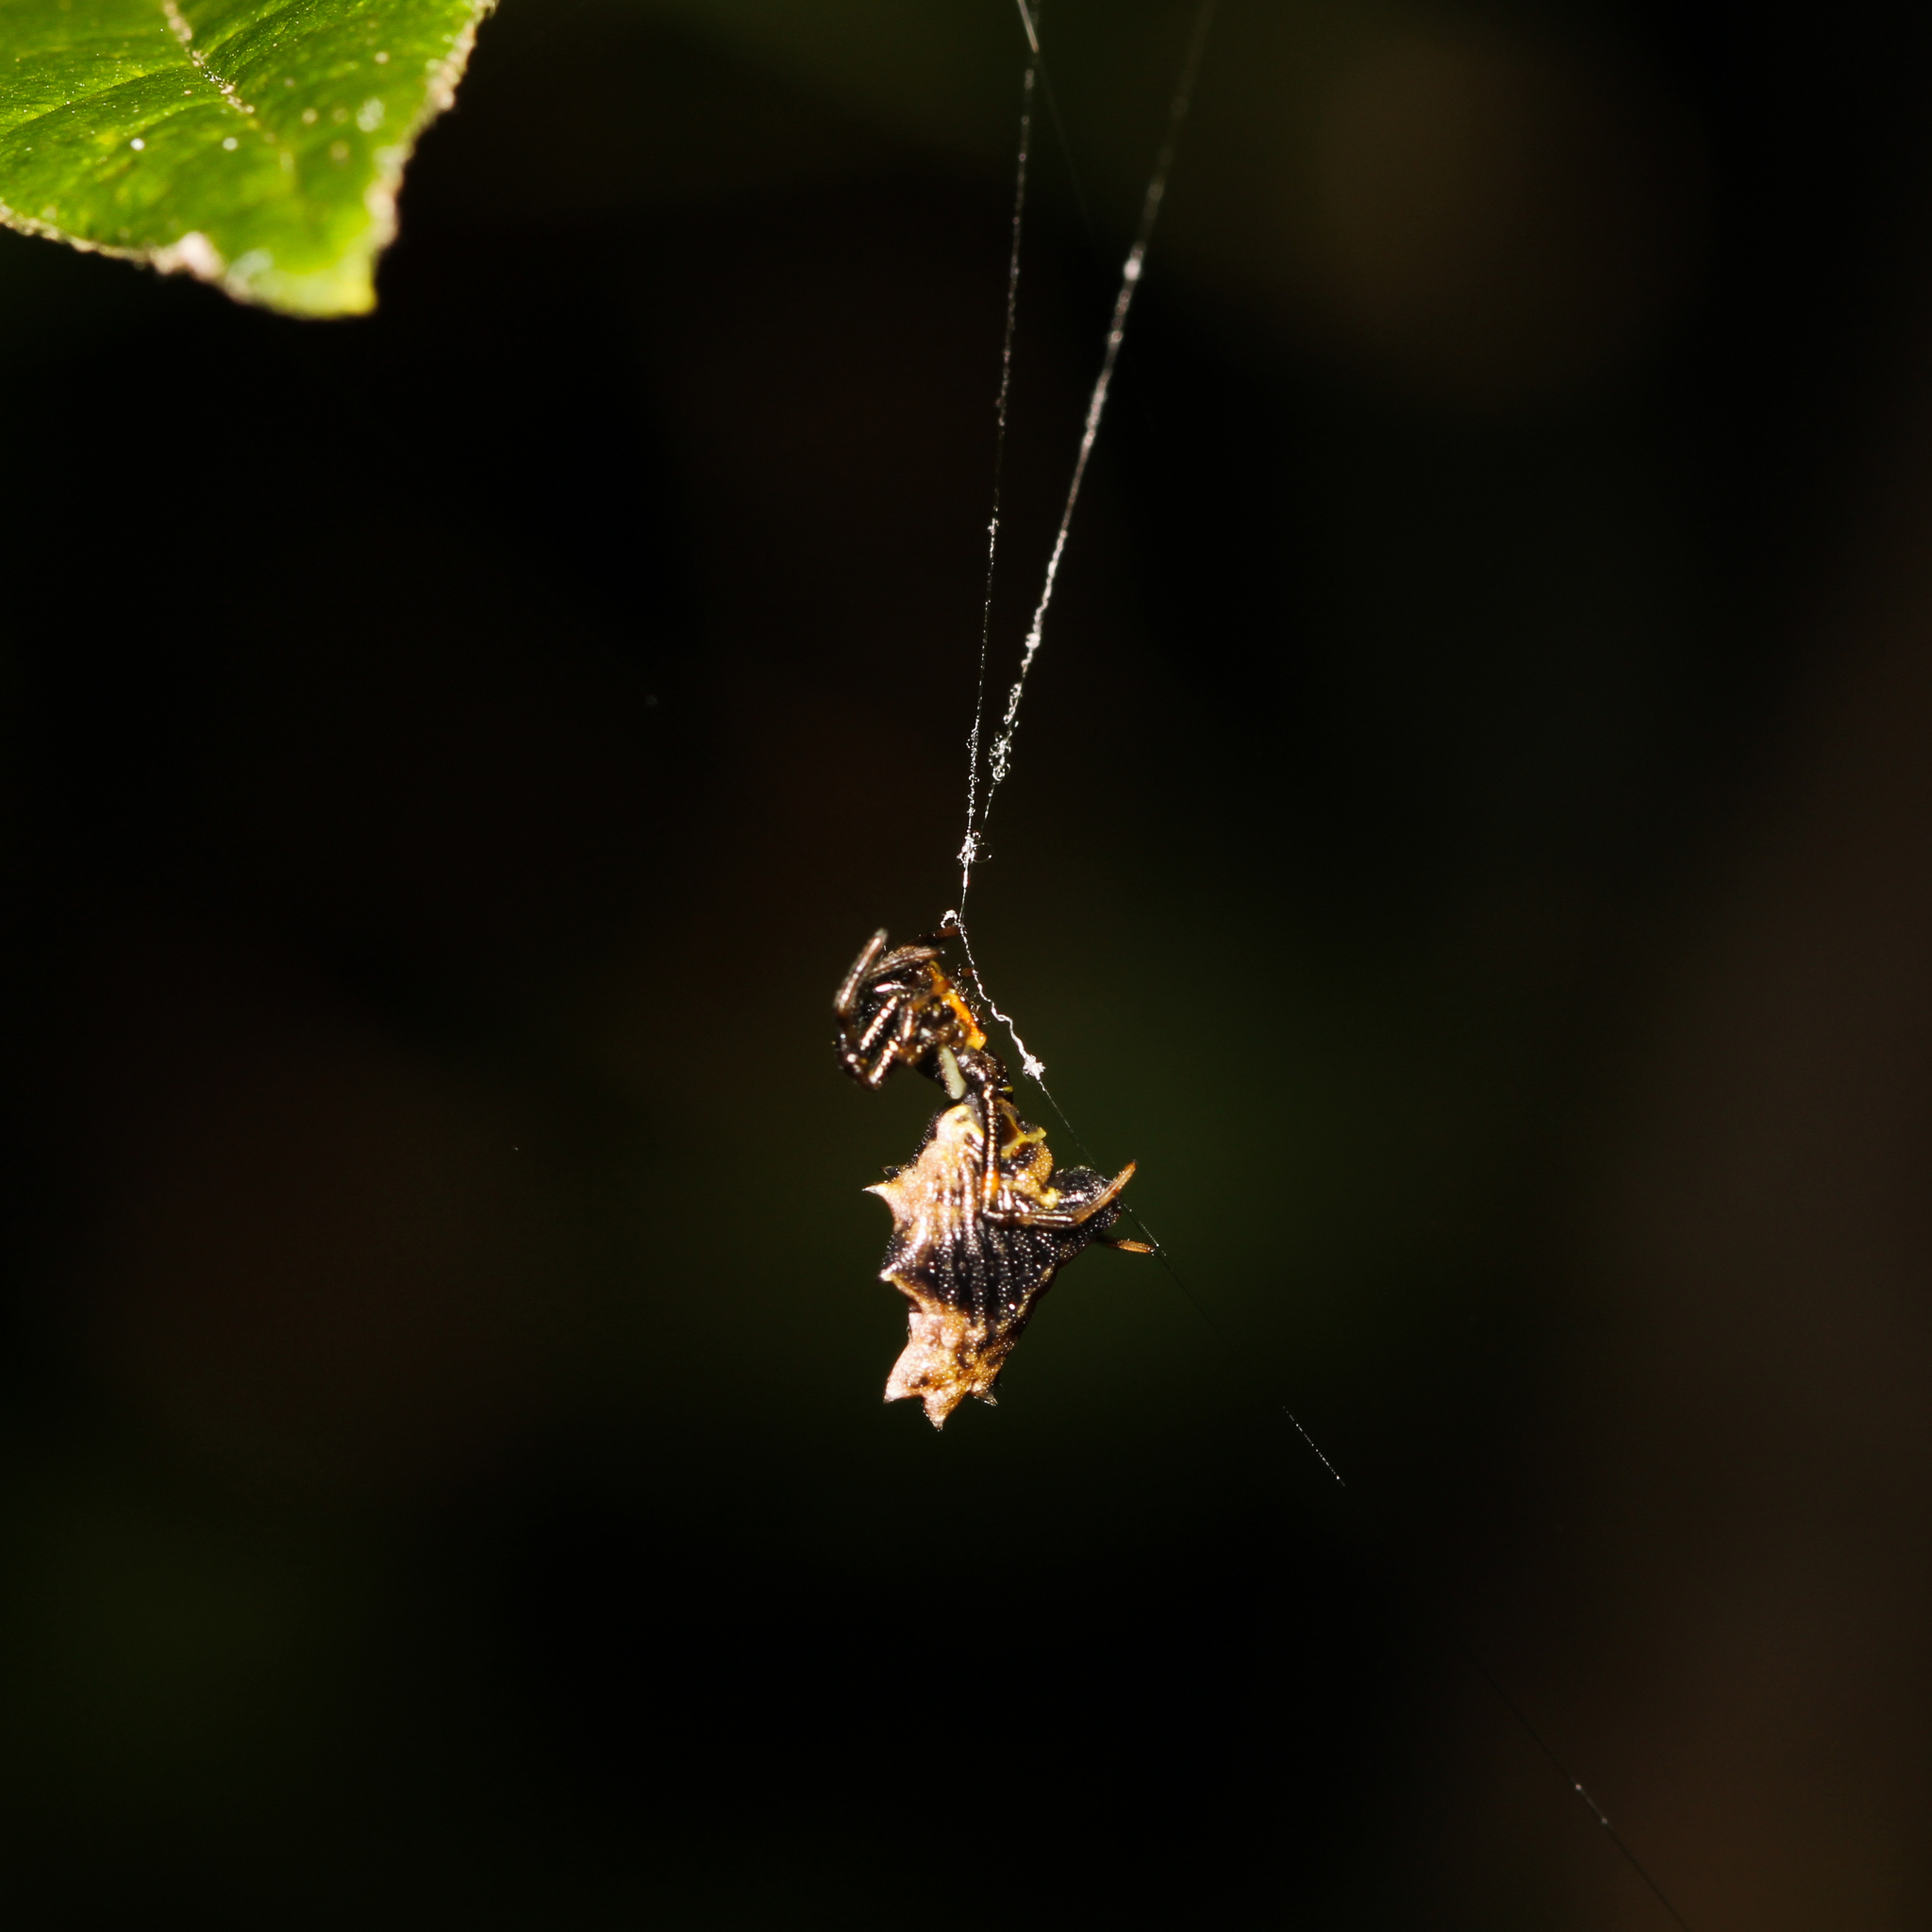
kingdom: Animalia
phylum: Arthropoda
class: Arachnida
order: Araneae
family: Araneidae
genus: Micrathena
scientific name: Micrathena gracilis
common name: Orb weavers
